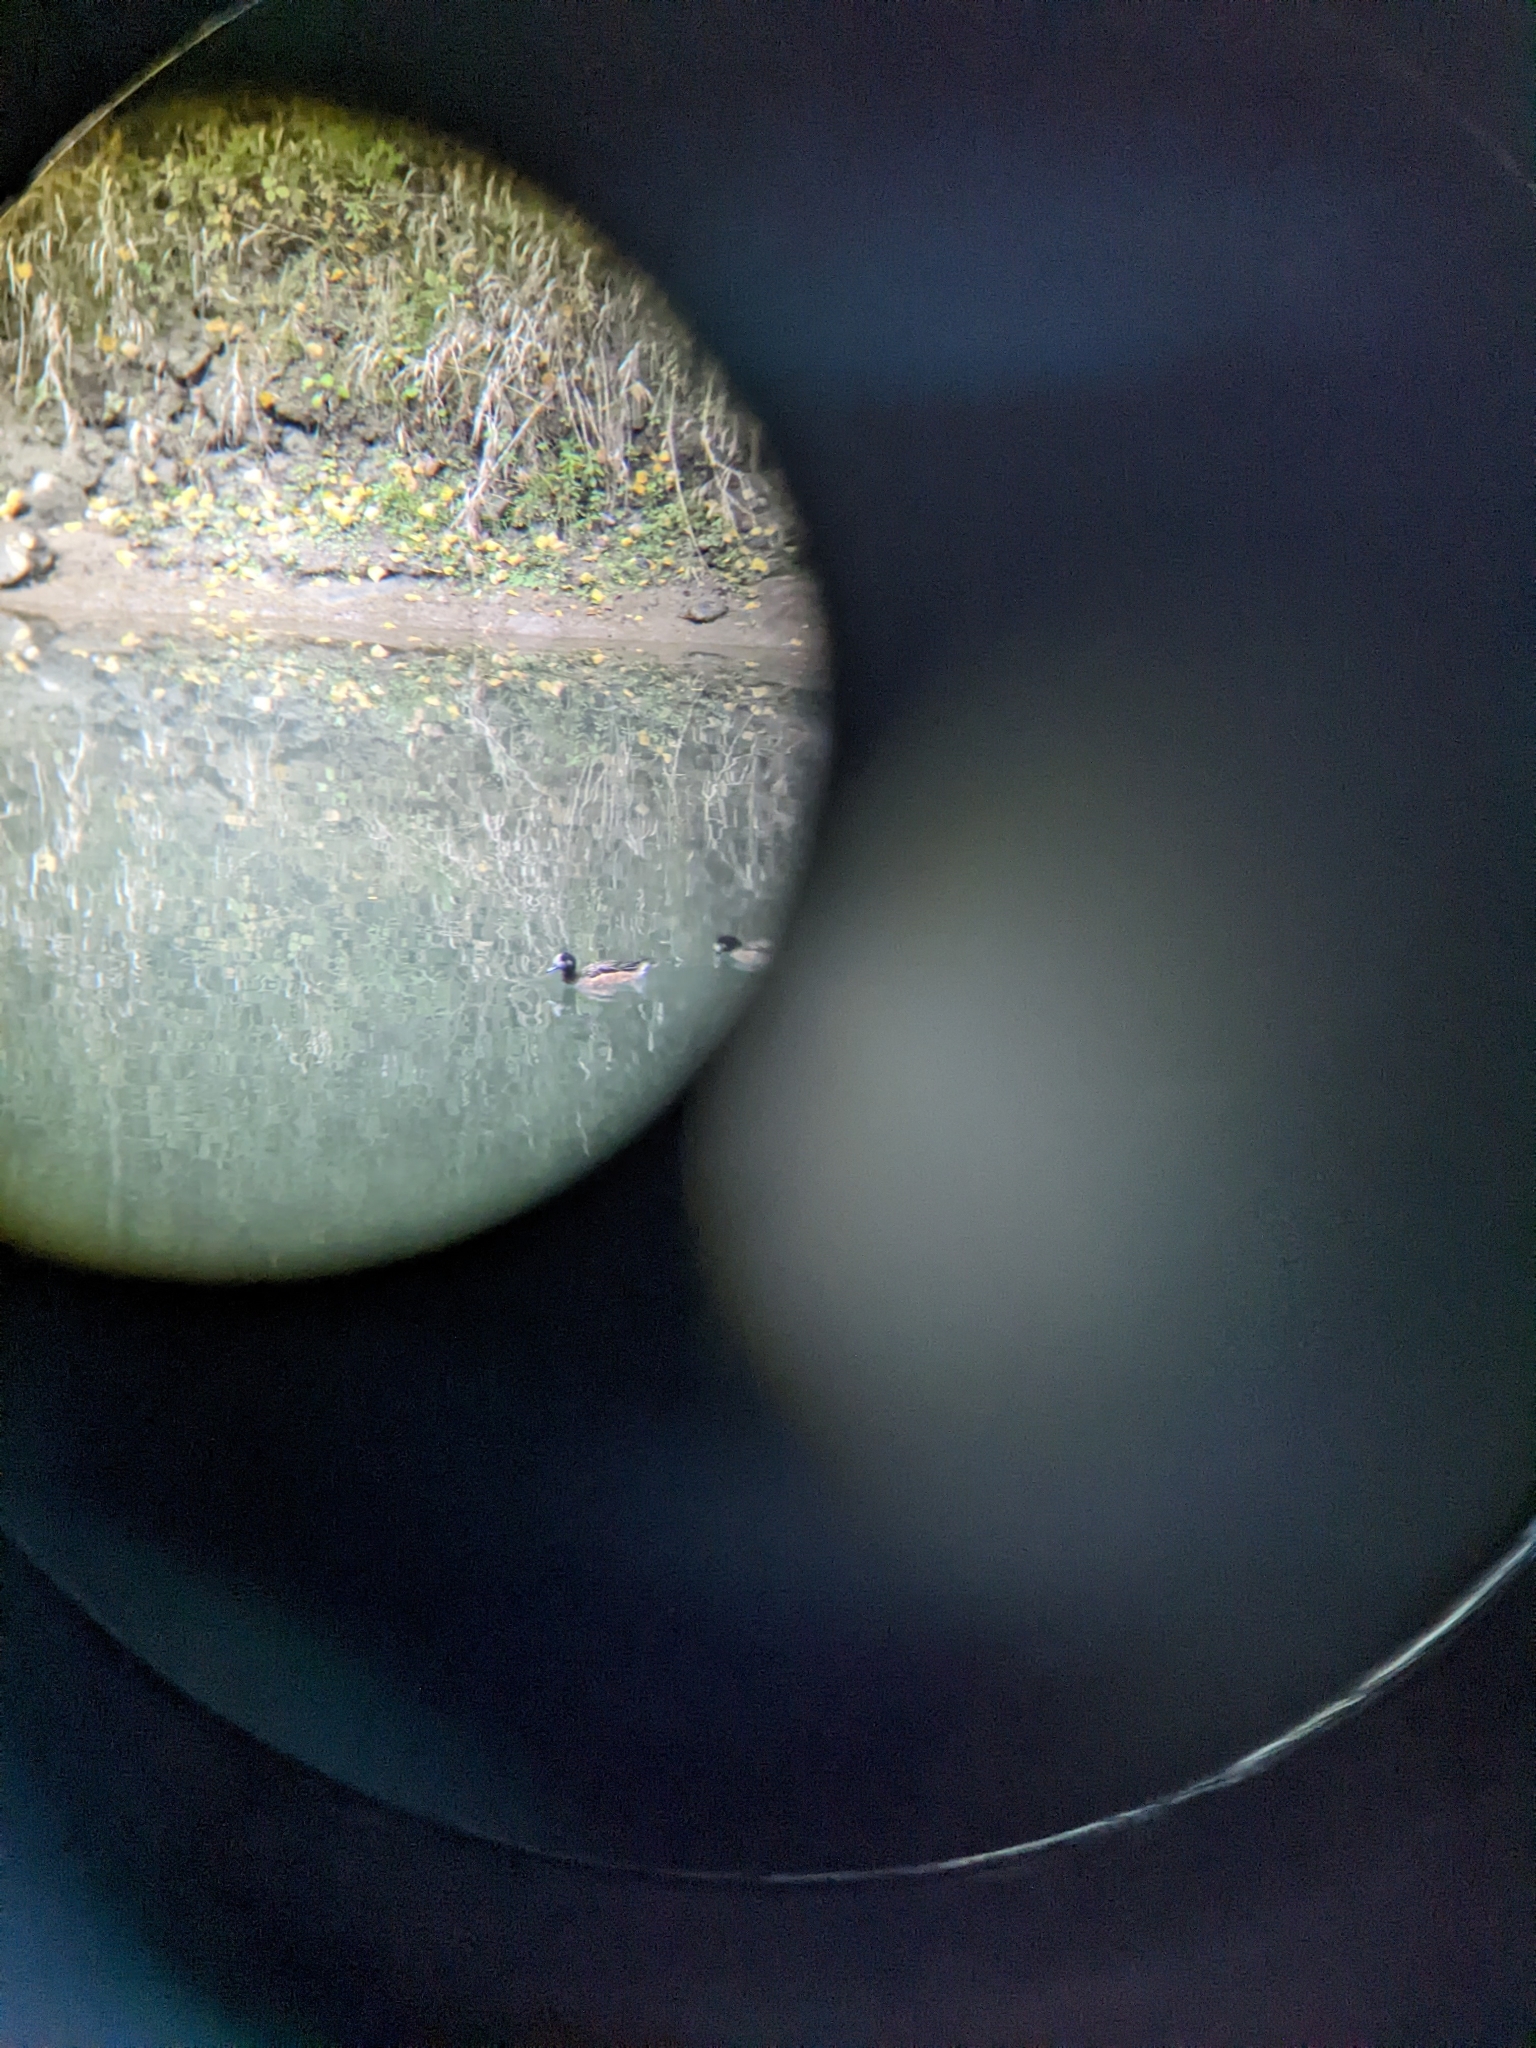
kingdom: Animalia
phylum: Chordata
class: Aves
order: Anseriformes
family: Anatidae
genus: Mareca
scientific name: Mareca sibilatrix
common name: Chiloe wigeon
